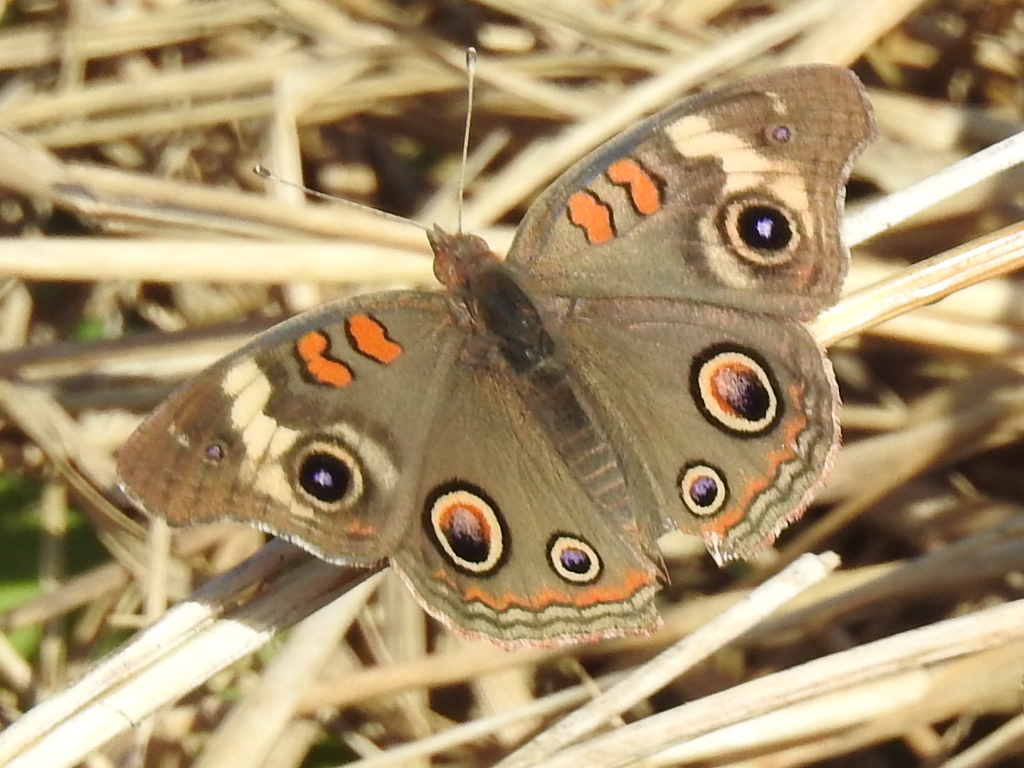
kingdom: Animalia
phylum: Arthropoda
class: Insecta
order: Lepidoptera
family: Nymphalidae
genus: Junonia
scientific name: Junonia coenia
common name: Common buckeye
